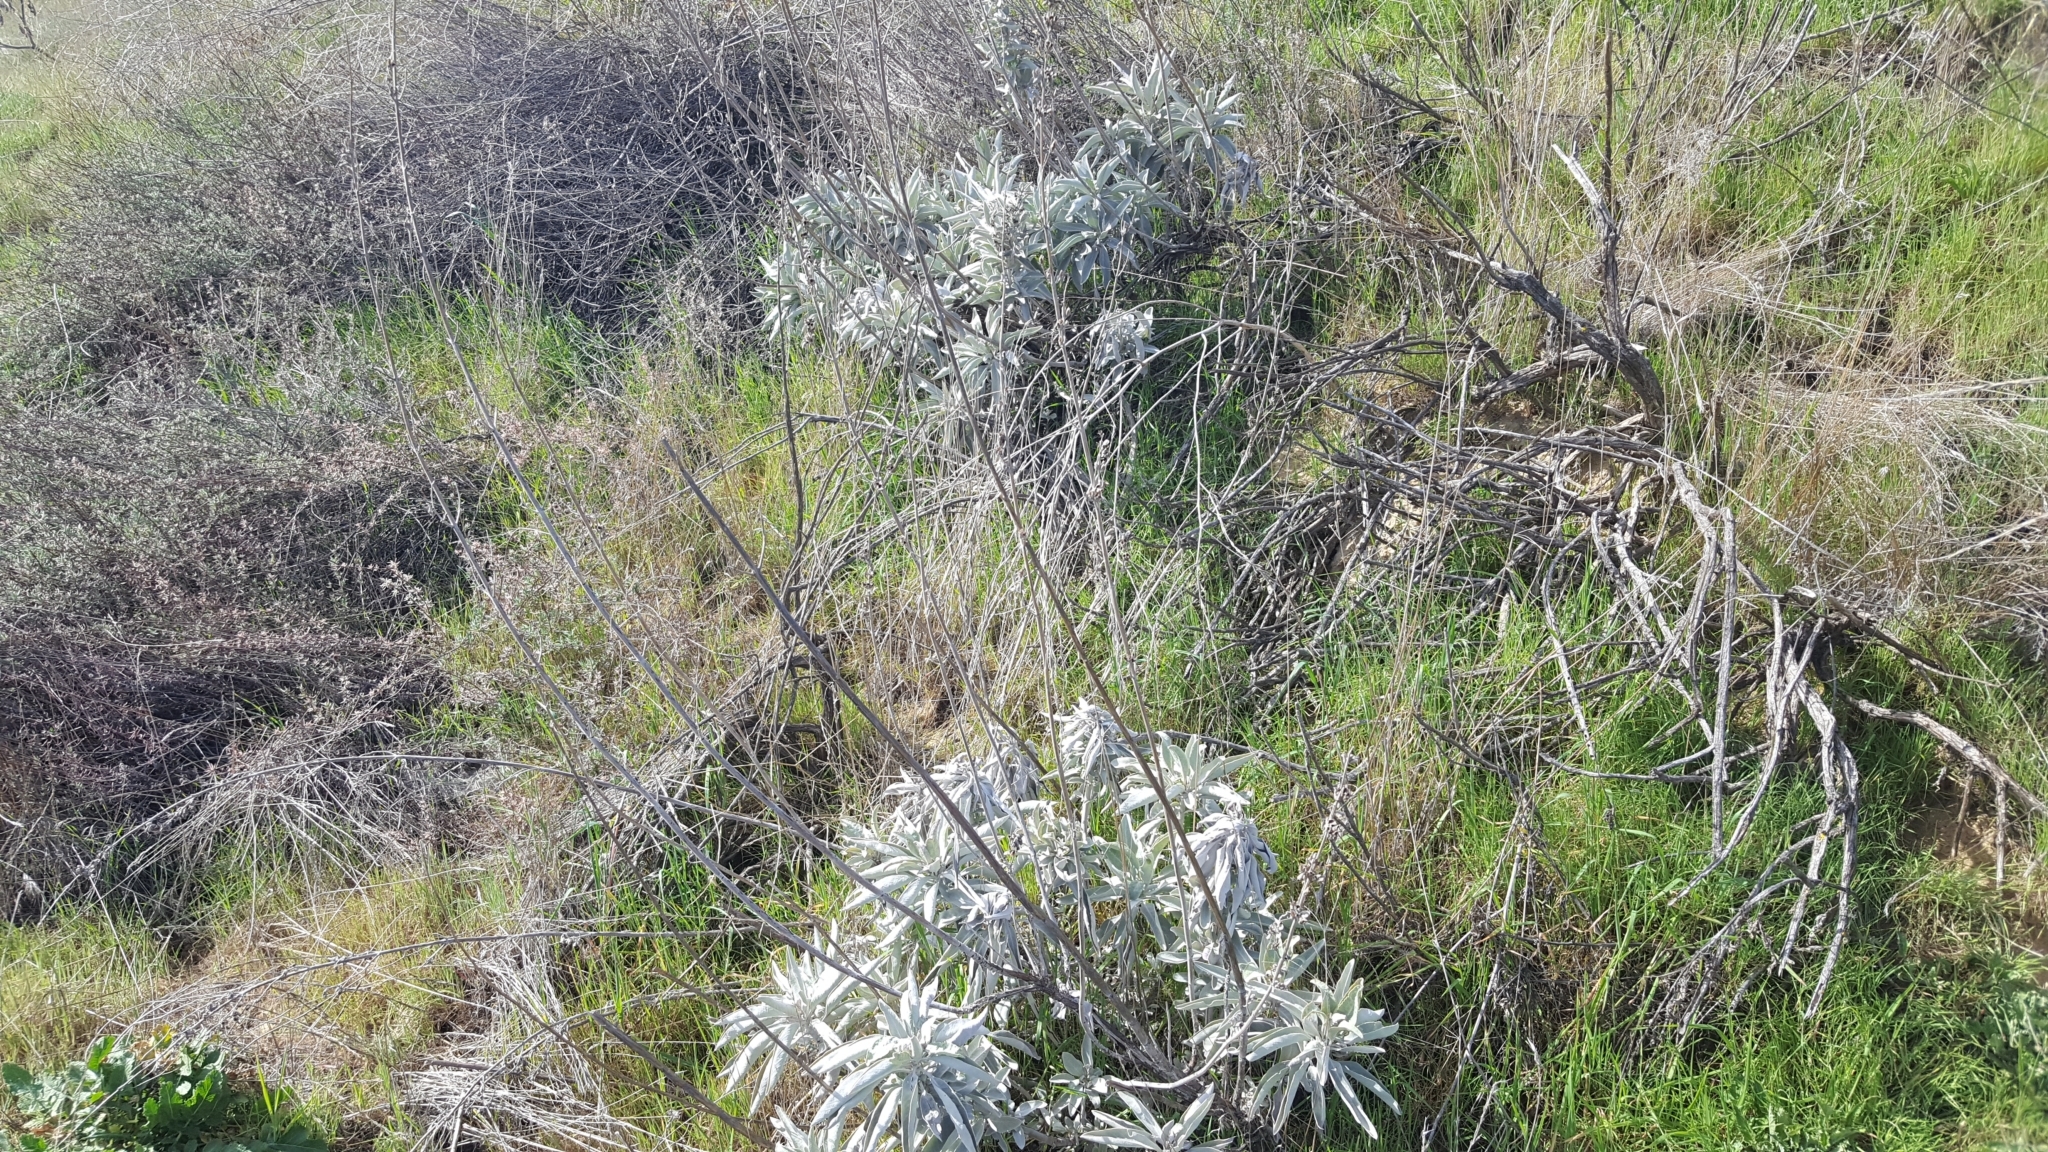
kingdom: Plantae
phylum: Tracheophyta
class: Magnoliopsida
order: Lamiales
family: Lamiaceae
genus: Salvia
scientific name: Salvia apiana
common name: White sage
